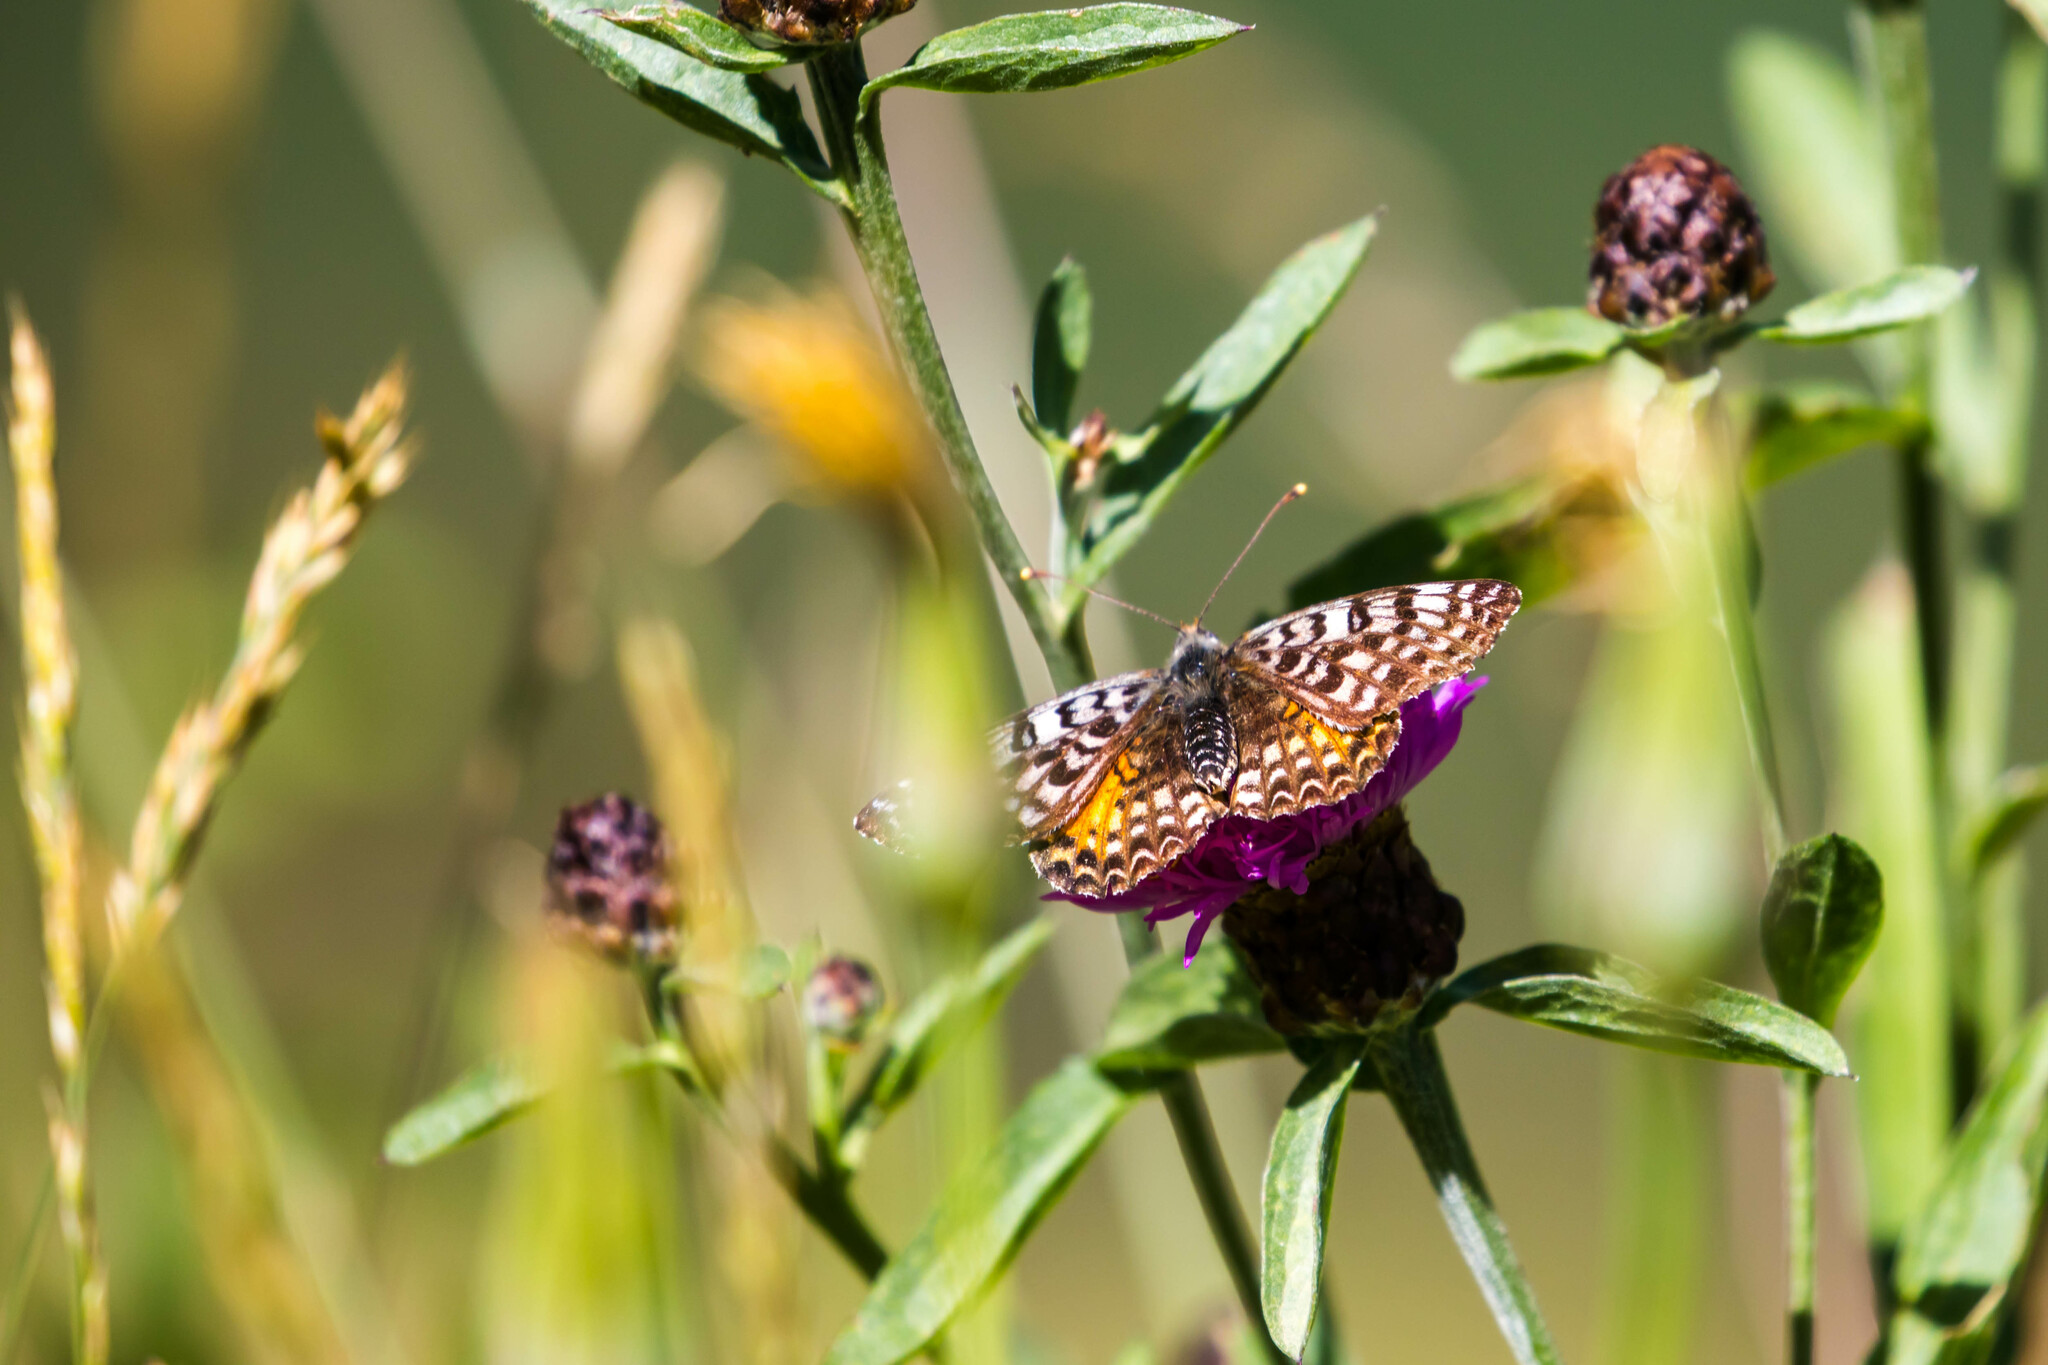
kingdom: Animalia
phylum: Arthropoda
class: Insecta
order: Lepidoptera
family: Nymphalidae
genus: Melitaea
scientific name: Melitaea didyma
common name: Spotted fritillary
